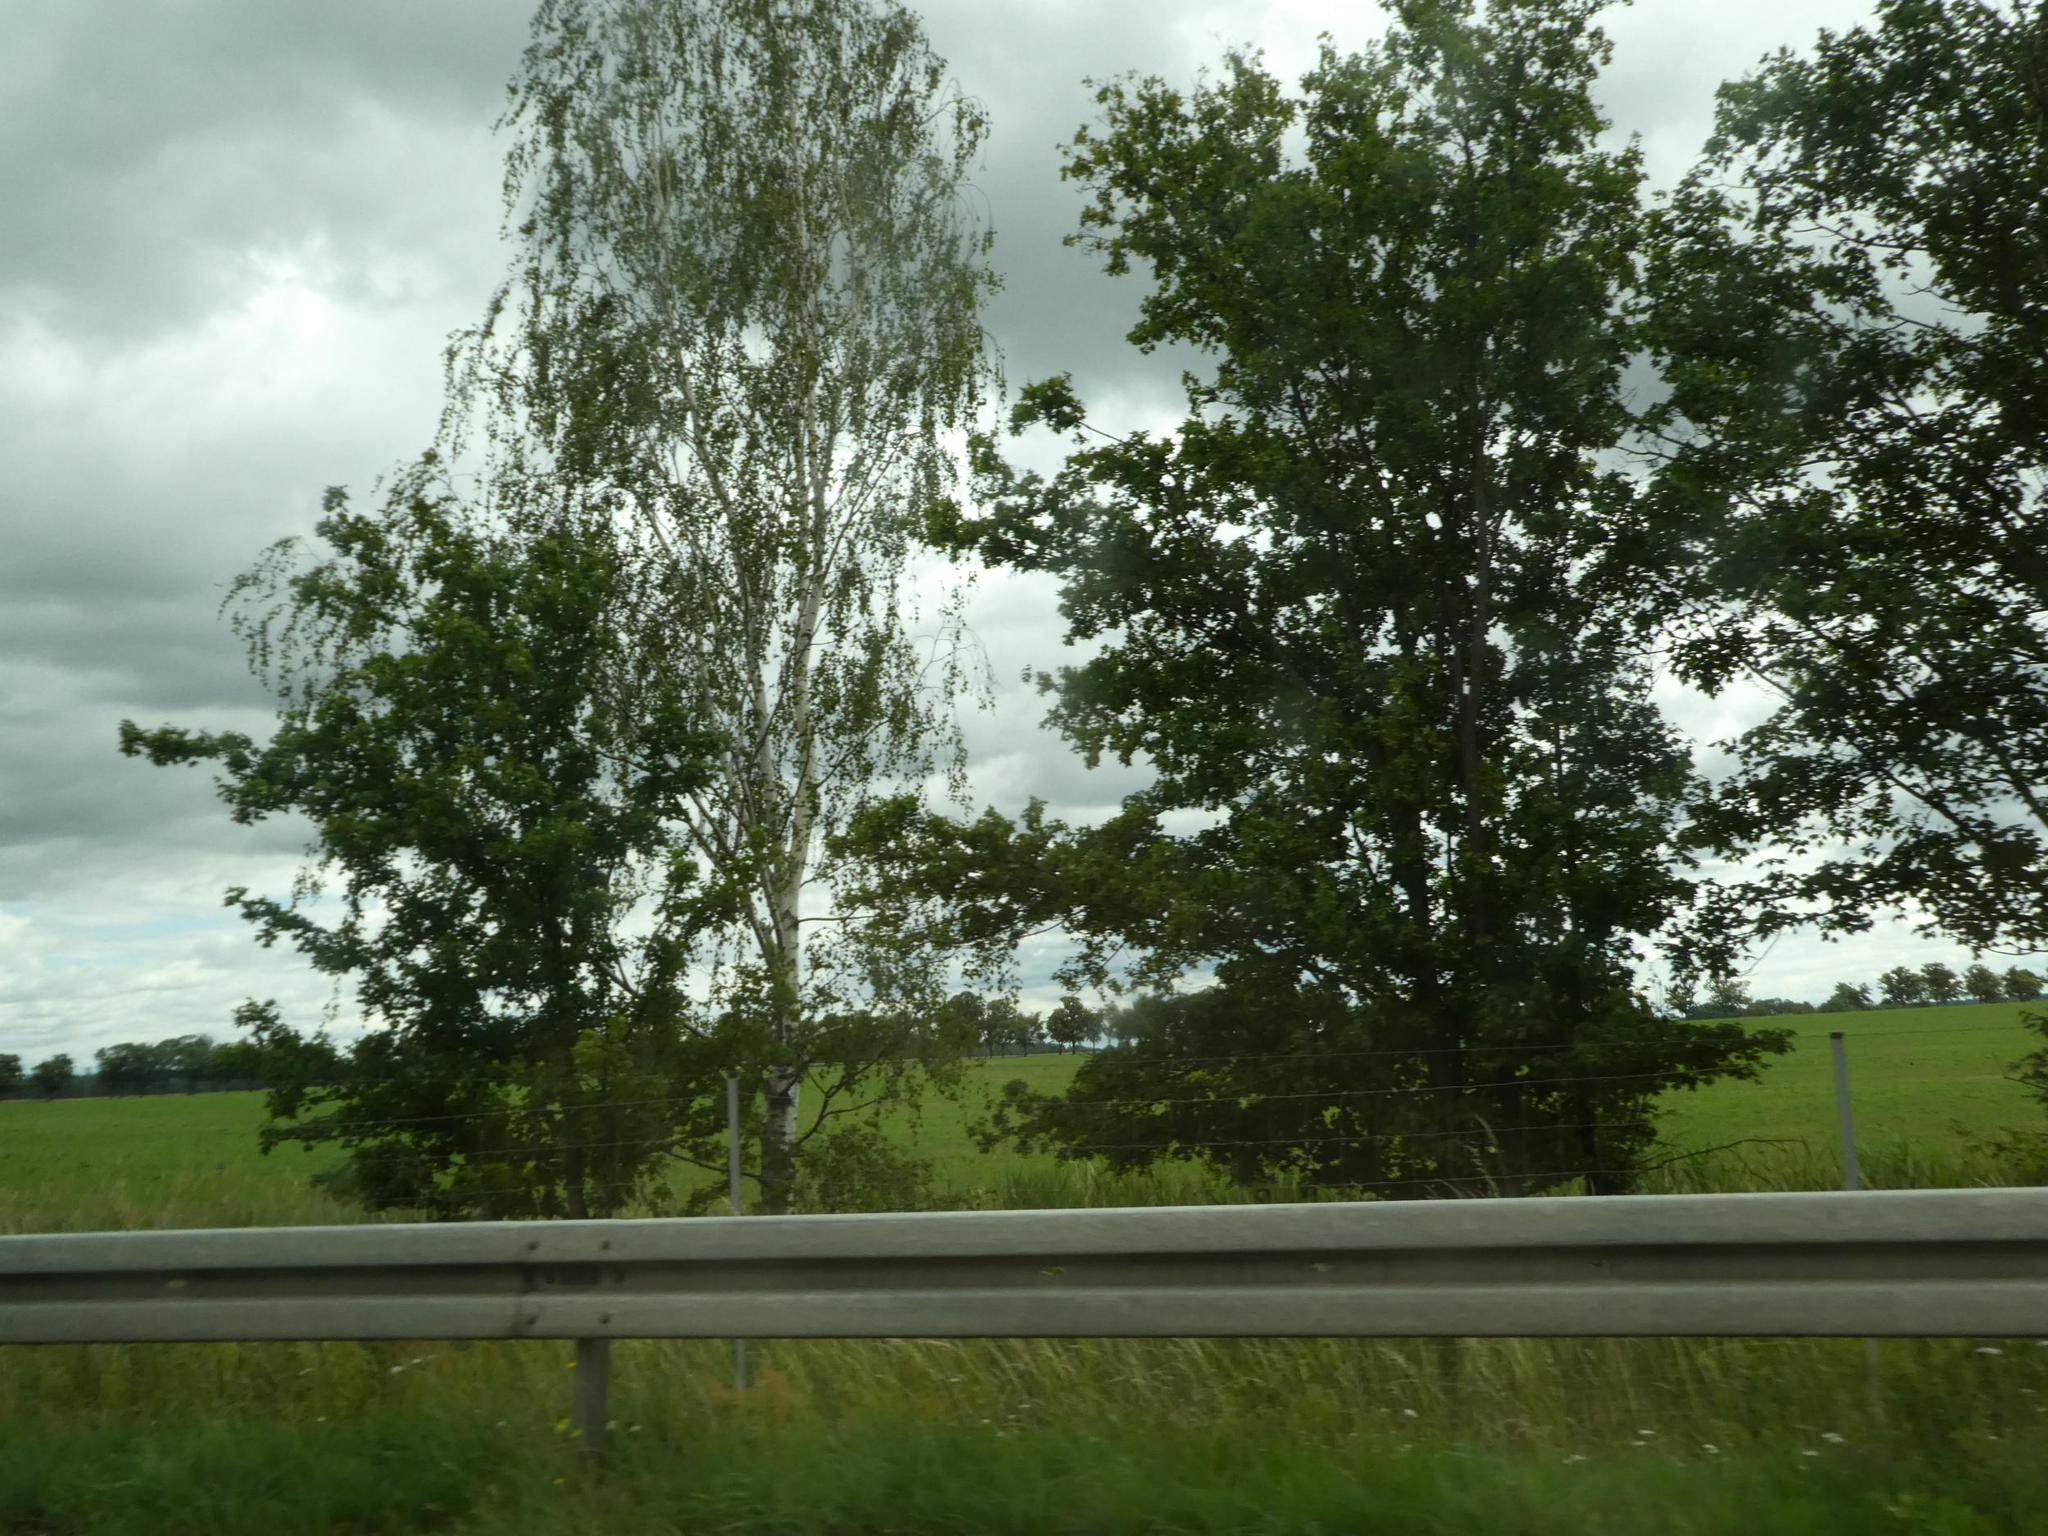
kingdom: Plantae
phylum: Tracheophyta
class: Magnoliopsida
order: Fagales
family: Betulaceae
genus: Betula
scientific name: Betula pendula
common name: Silver birch
